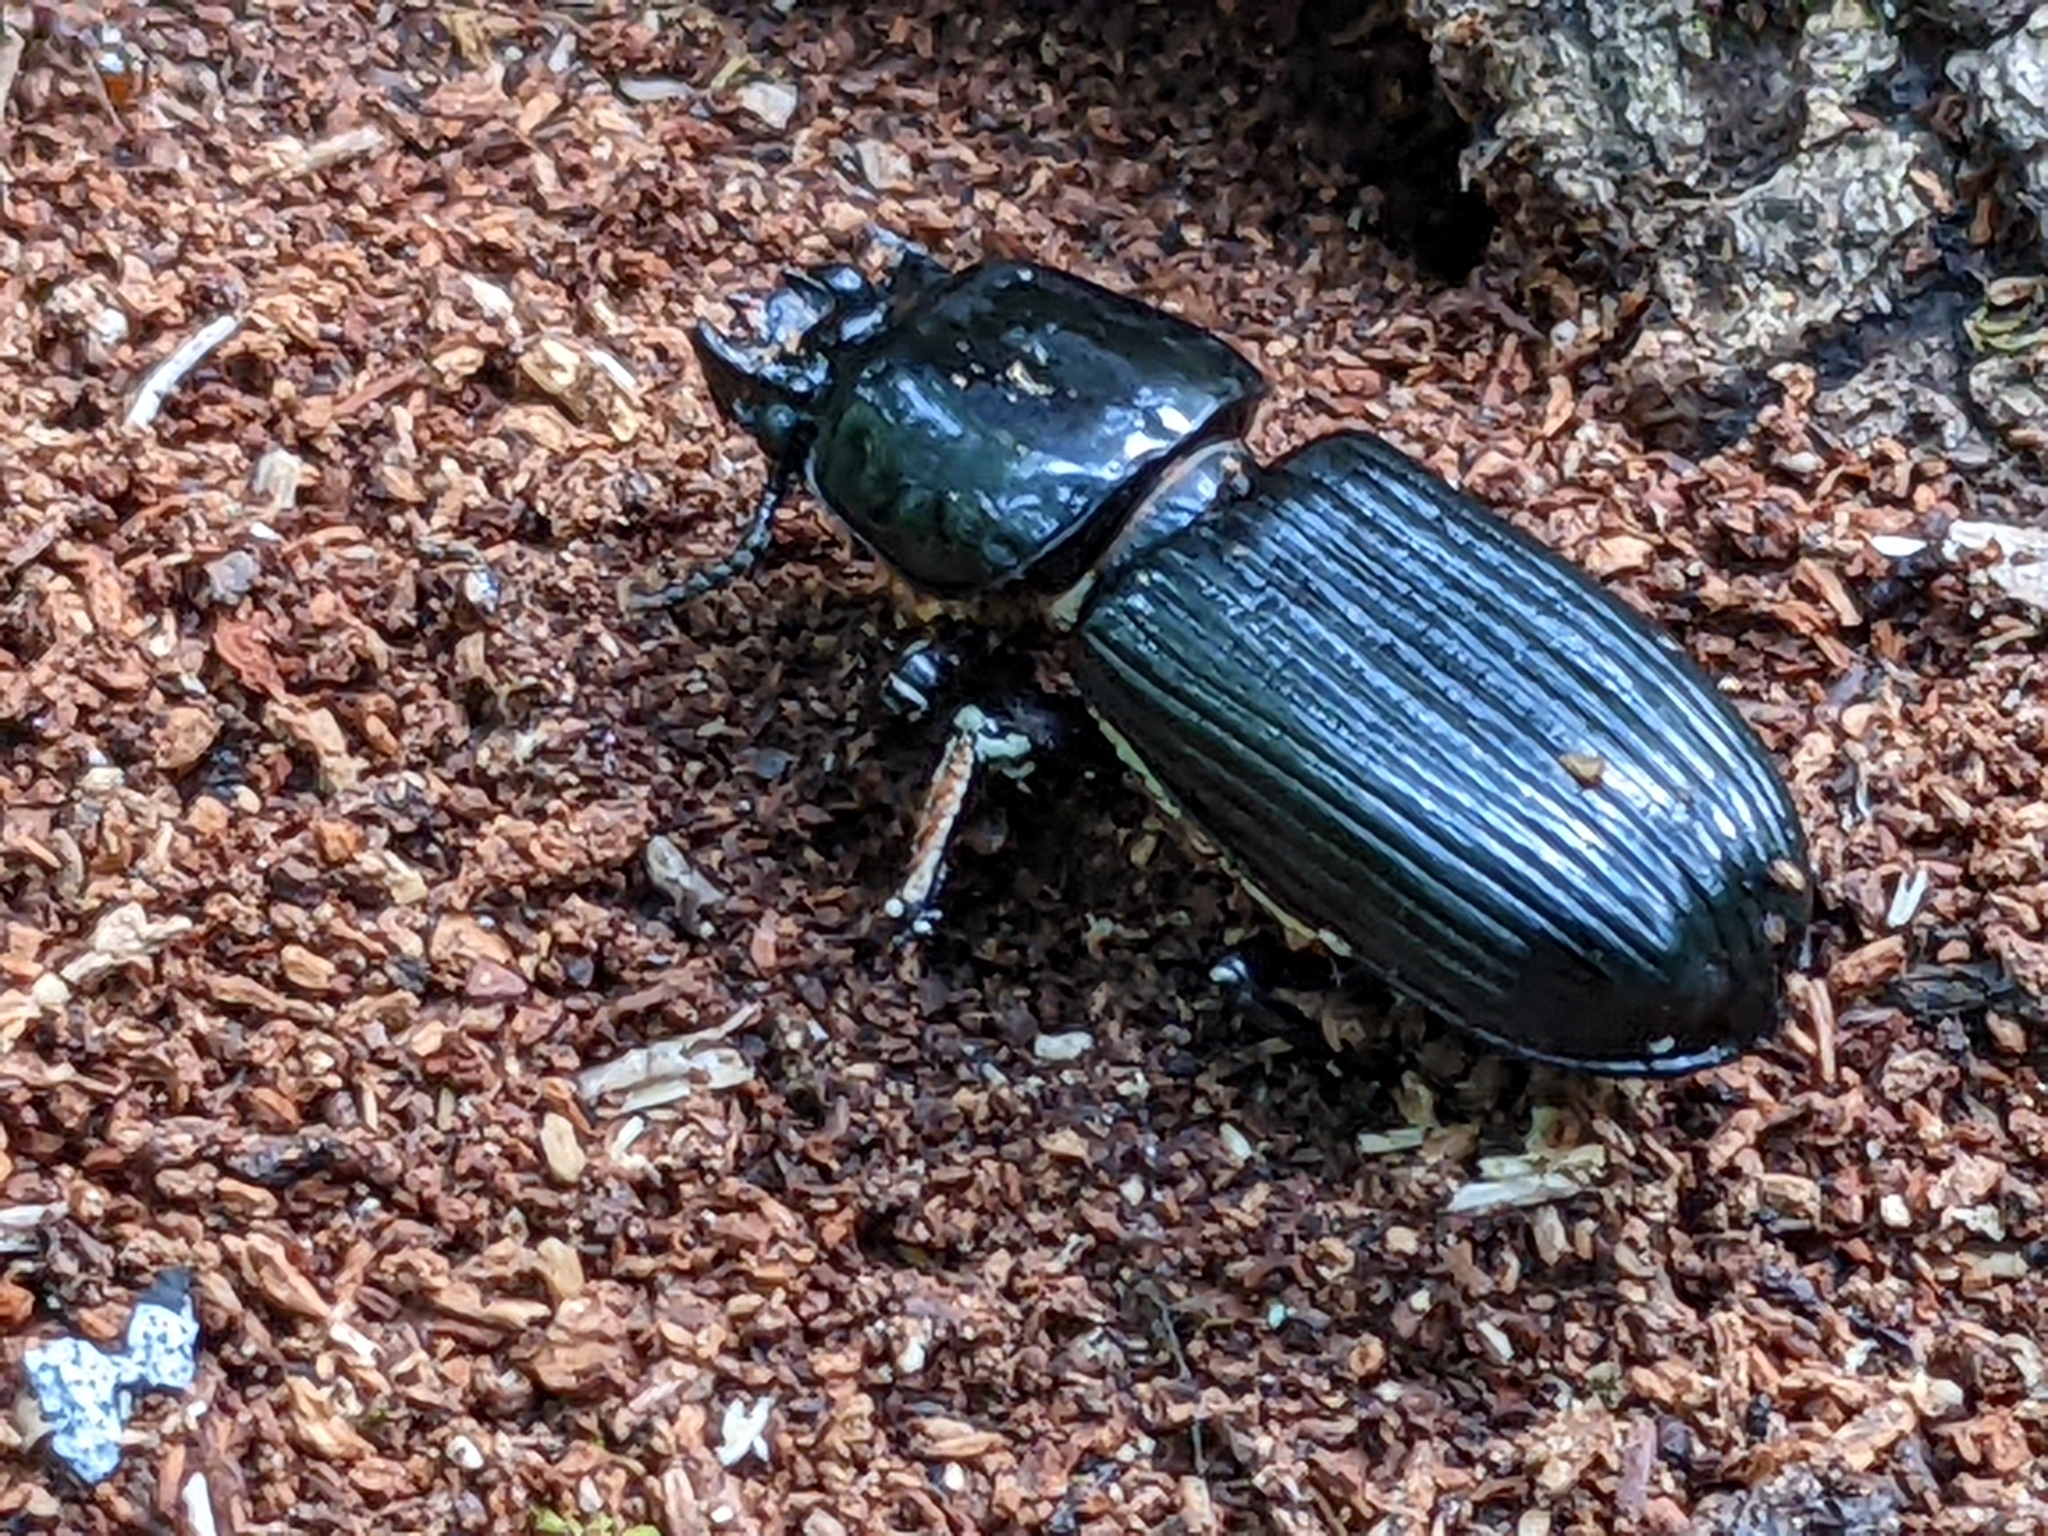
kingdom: Animalia
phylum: Arthropoda
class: Insecta
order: Coleoptera
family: Passalidae
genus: Odontotaenius
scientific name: Odontotaenius disjunctus
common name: Patent leather beetle
